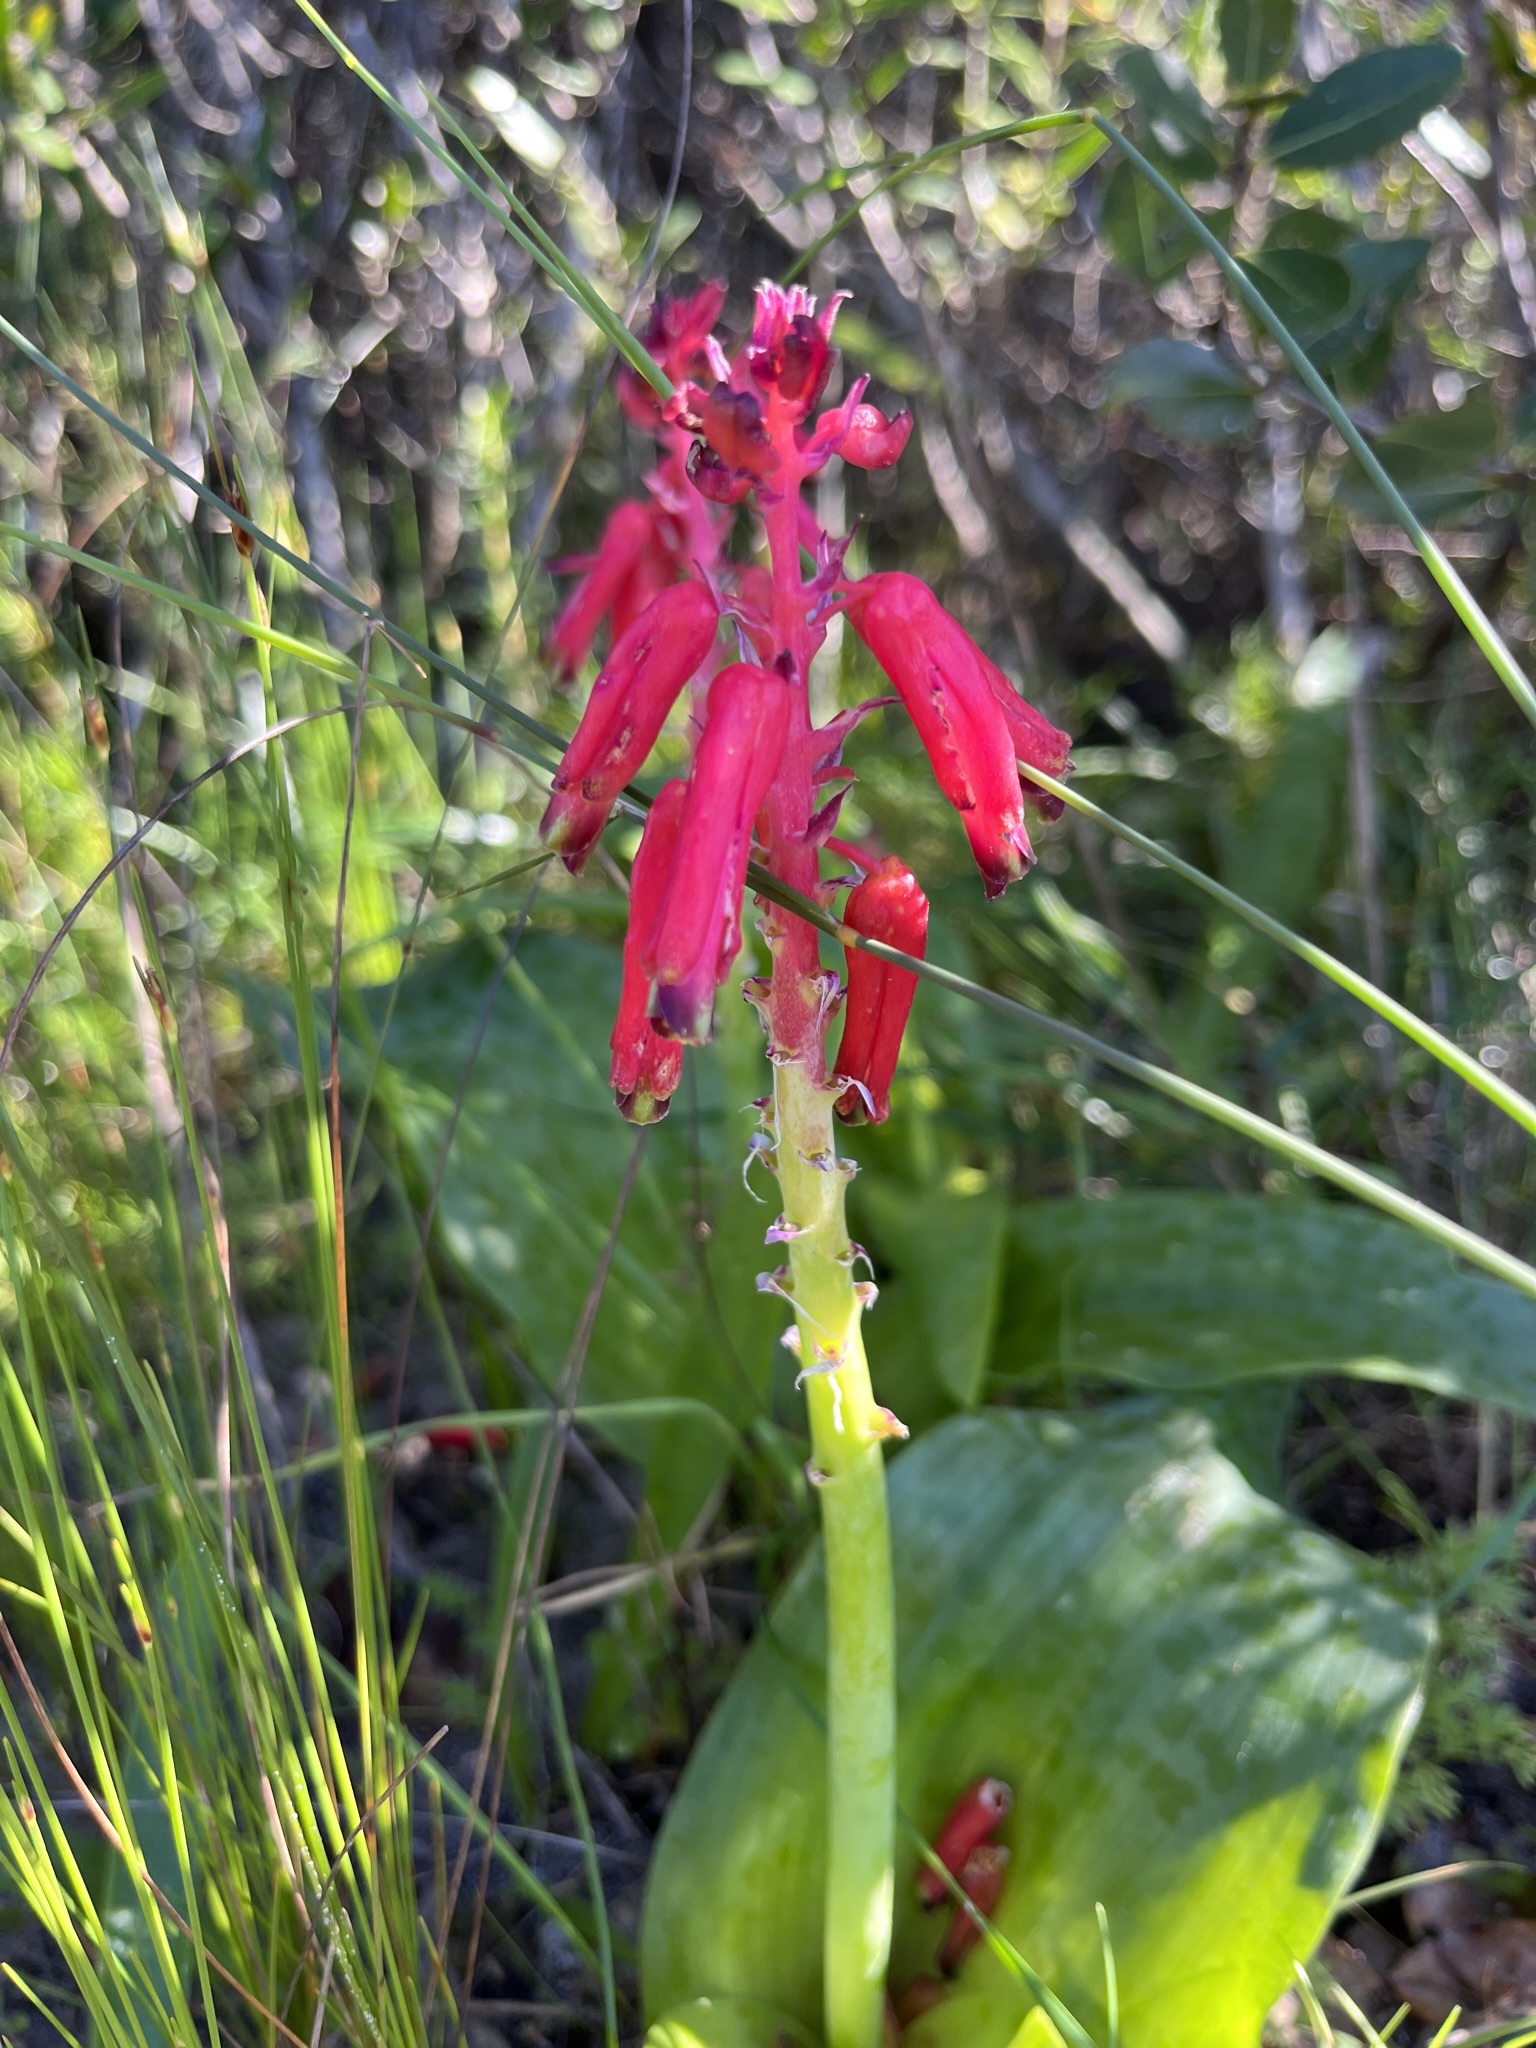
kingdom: Plantae
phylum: Tracheophyta
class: Liliopsida
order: Asparagales
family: Asparagaceae
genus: Lachenalia
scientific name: Lachenalia bulbifera
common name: Red lachenalia
